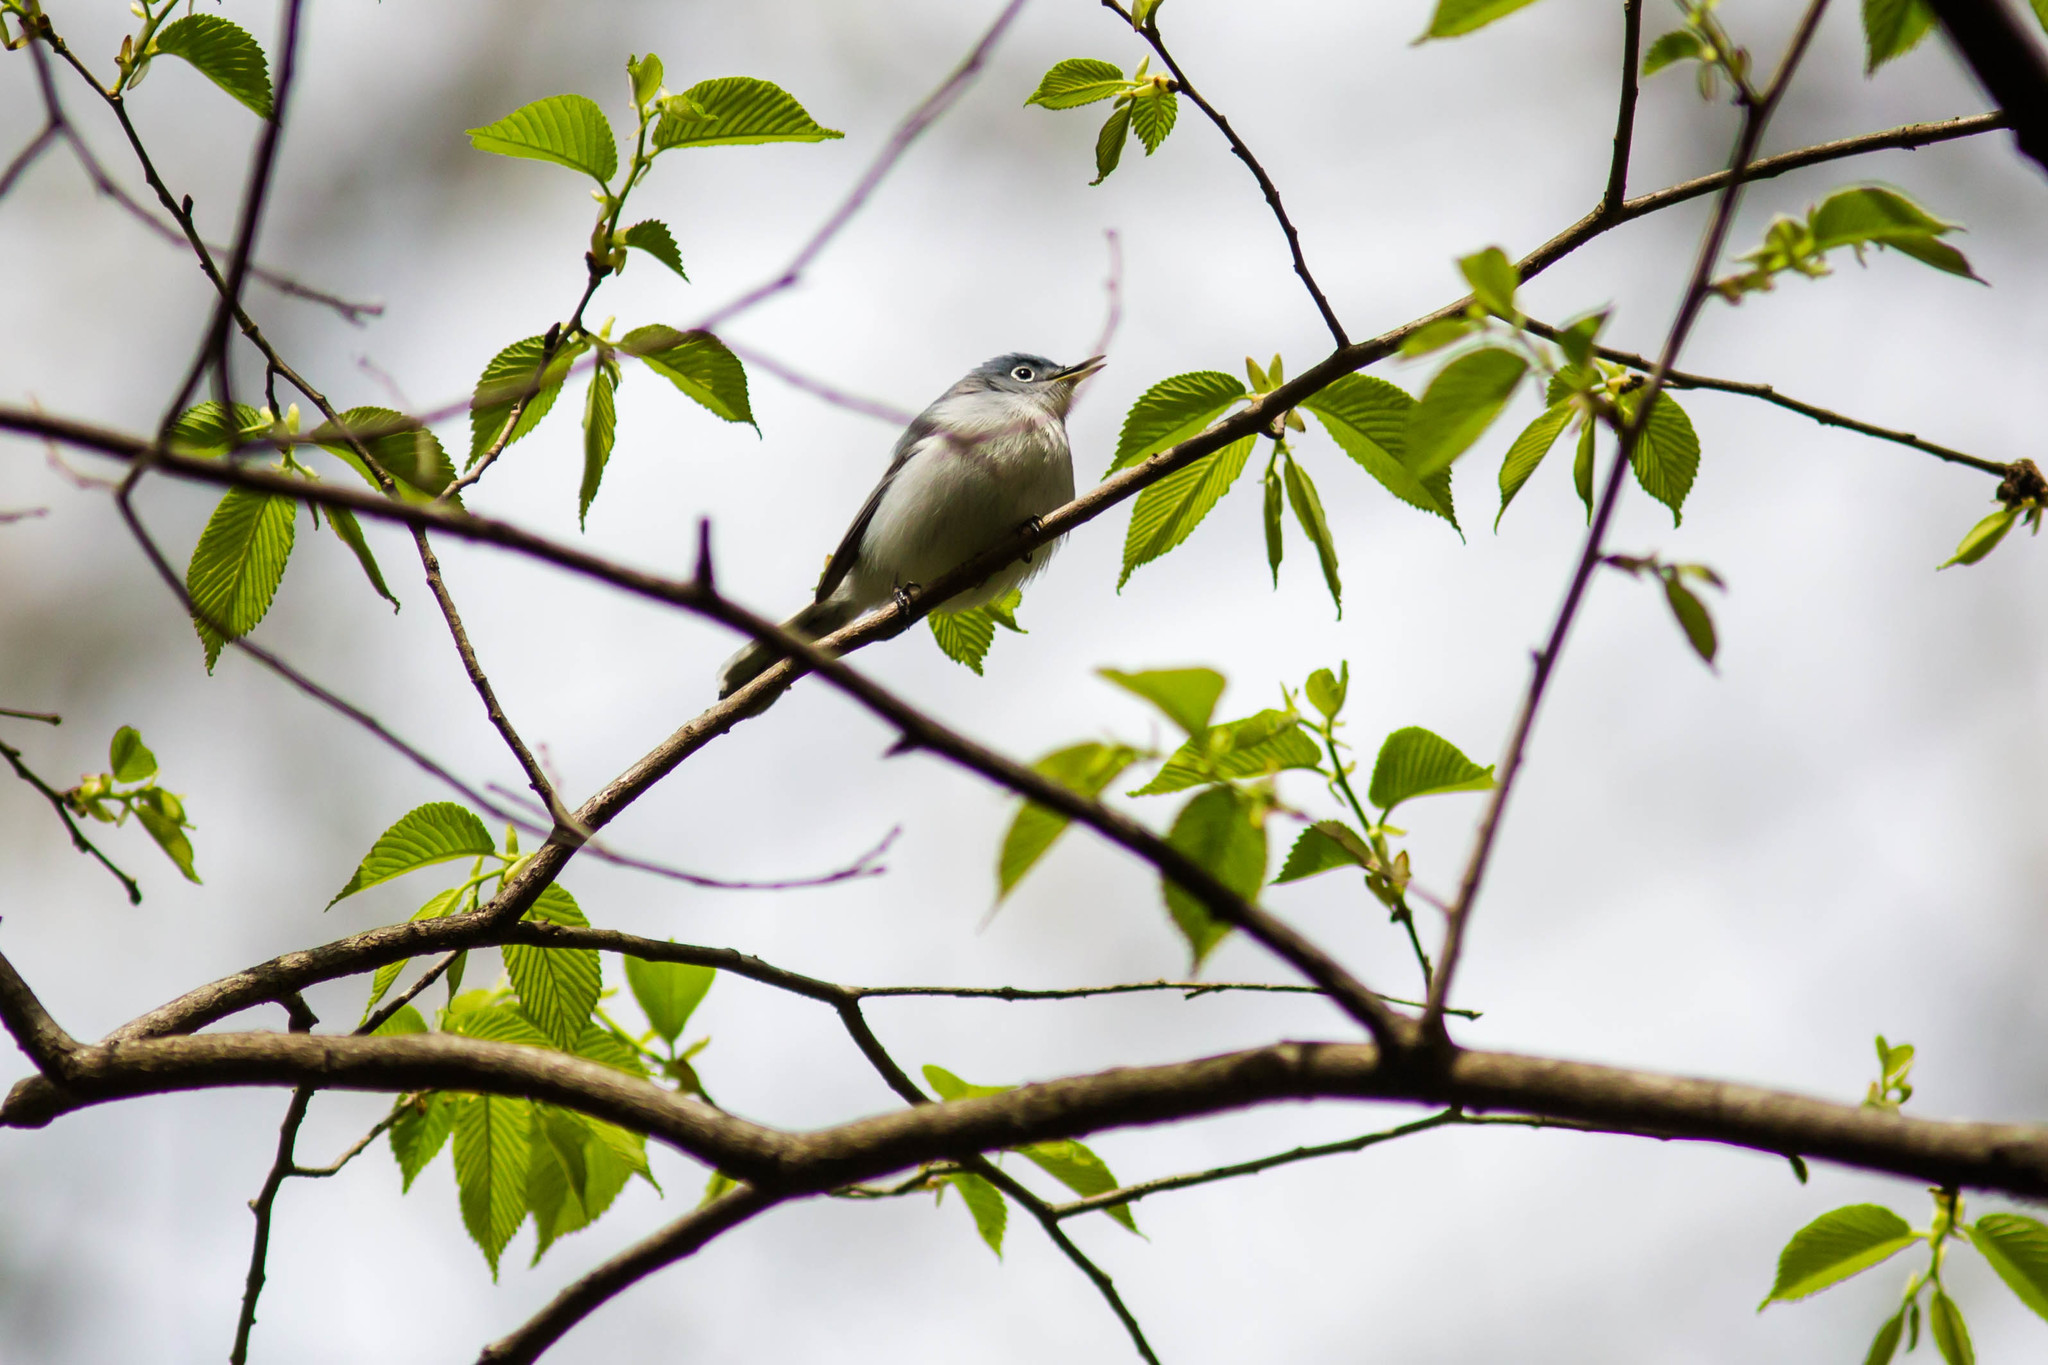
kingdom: Animalia
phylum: Chordata
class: Aves
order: Passeriformes
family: Polioptilidae
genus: Polioptila
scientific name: Polioptila caerulea
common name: Blue-gray gnatcatcher
